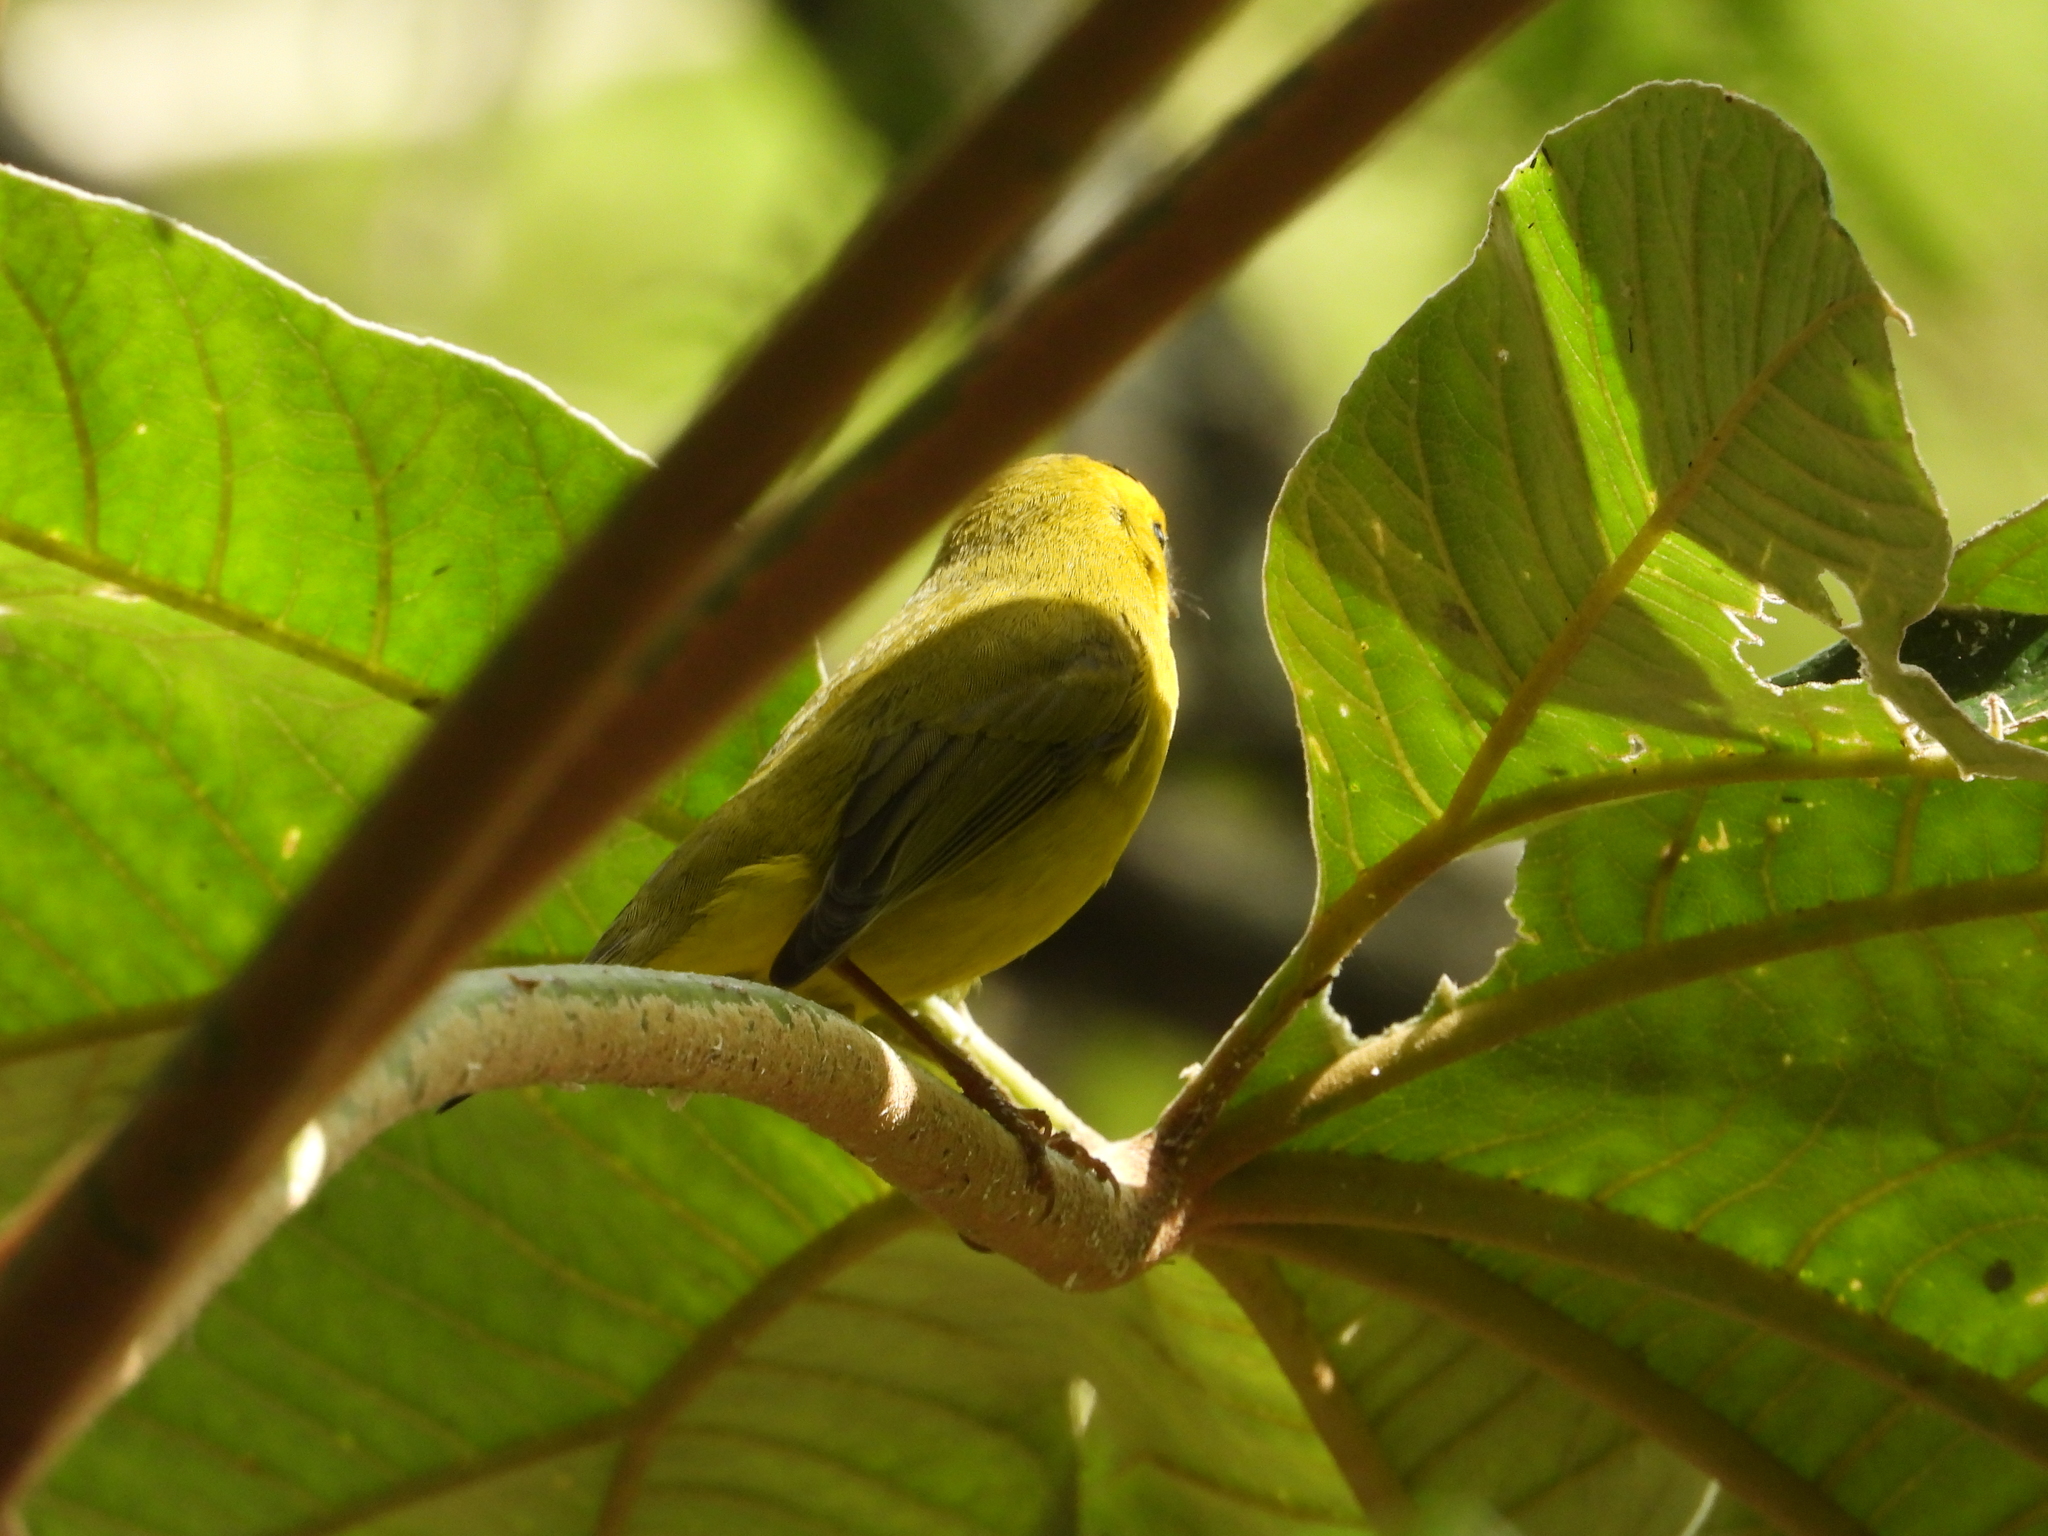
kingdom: Animalia
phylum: Chordata
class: Aves
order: Passeriformes
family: Parulidae
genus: Cardellina
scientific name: Cardellina pusilla
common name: Wilson's warbler
